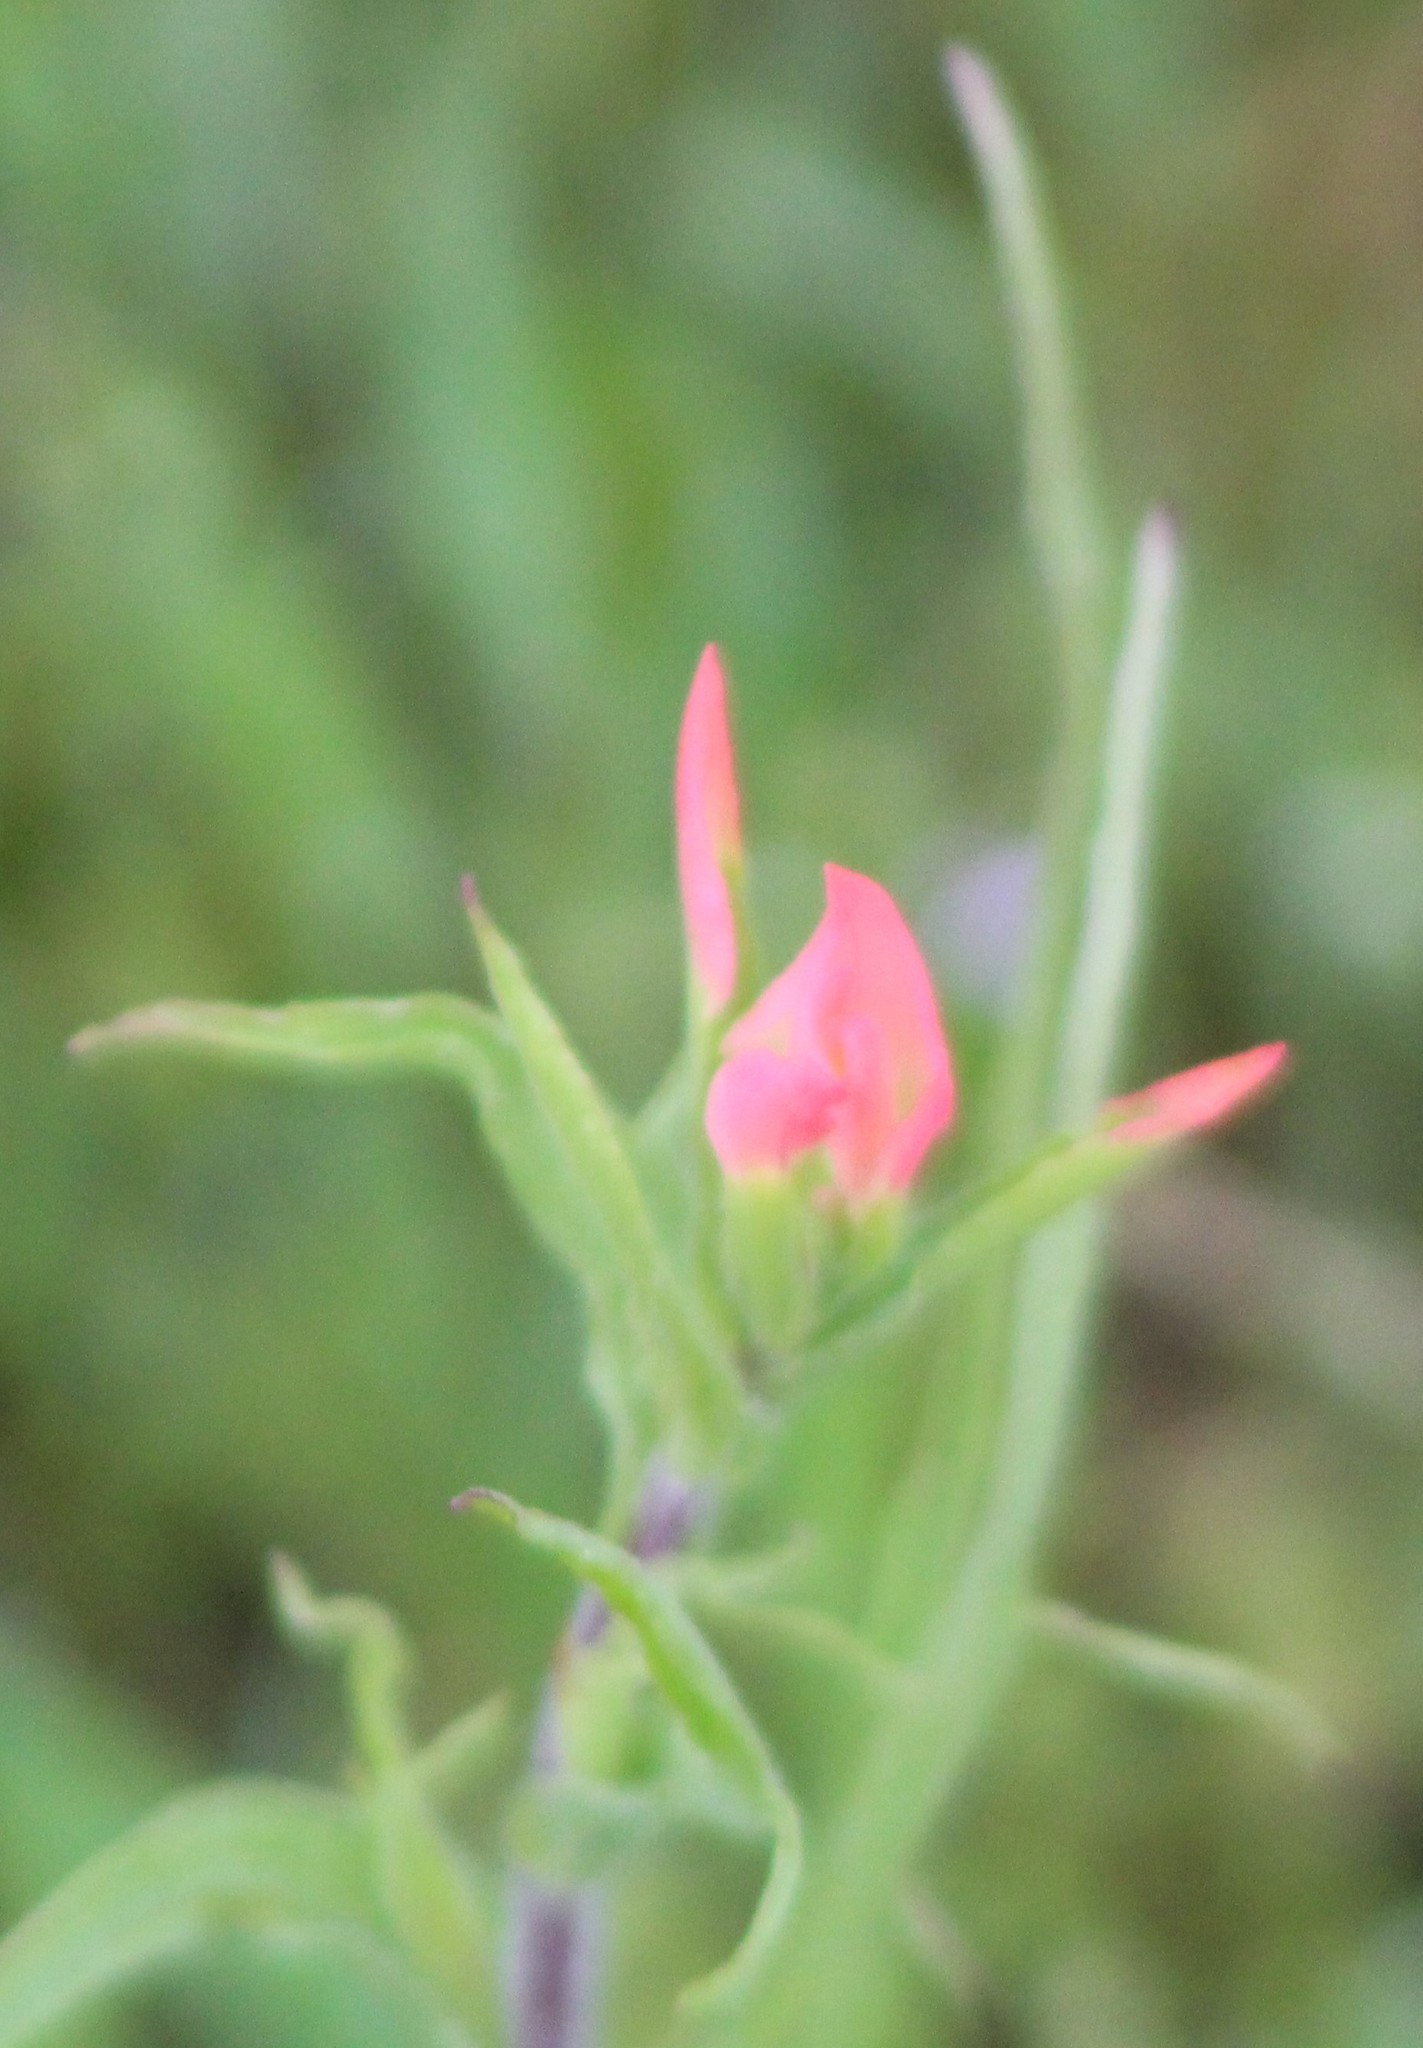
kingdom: Plantae
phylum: Tracheophyta
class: Magnoliopsida
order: Lamiales
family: Orobanchaceae
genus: Castilleja
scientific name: Castilleja indivisa
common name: Texas paintbrush
